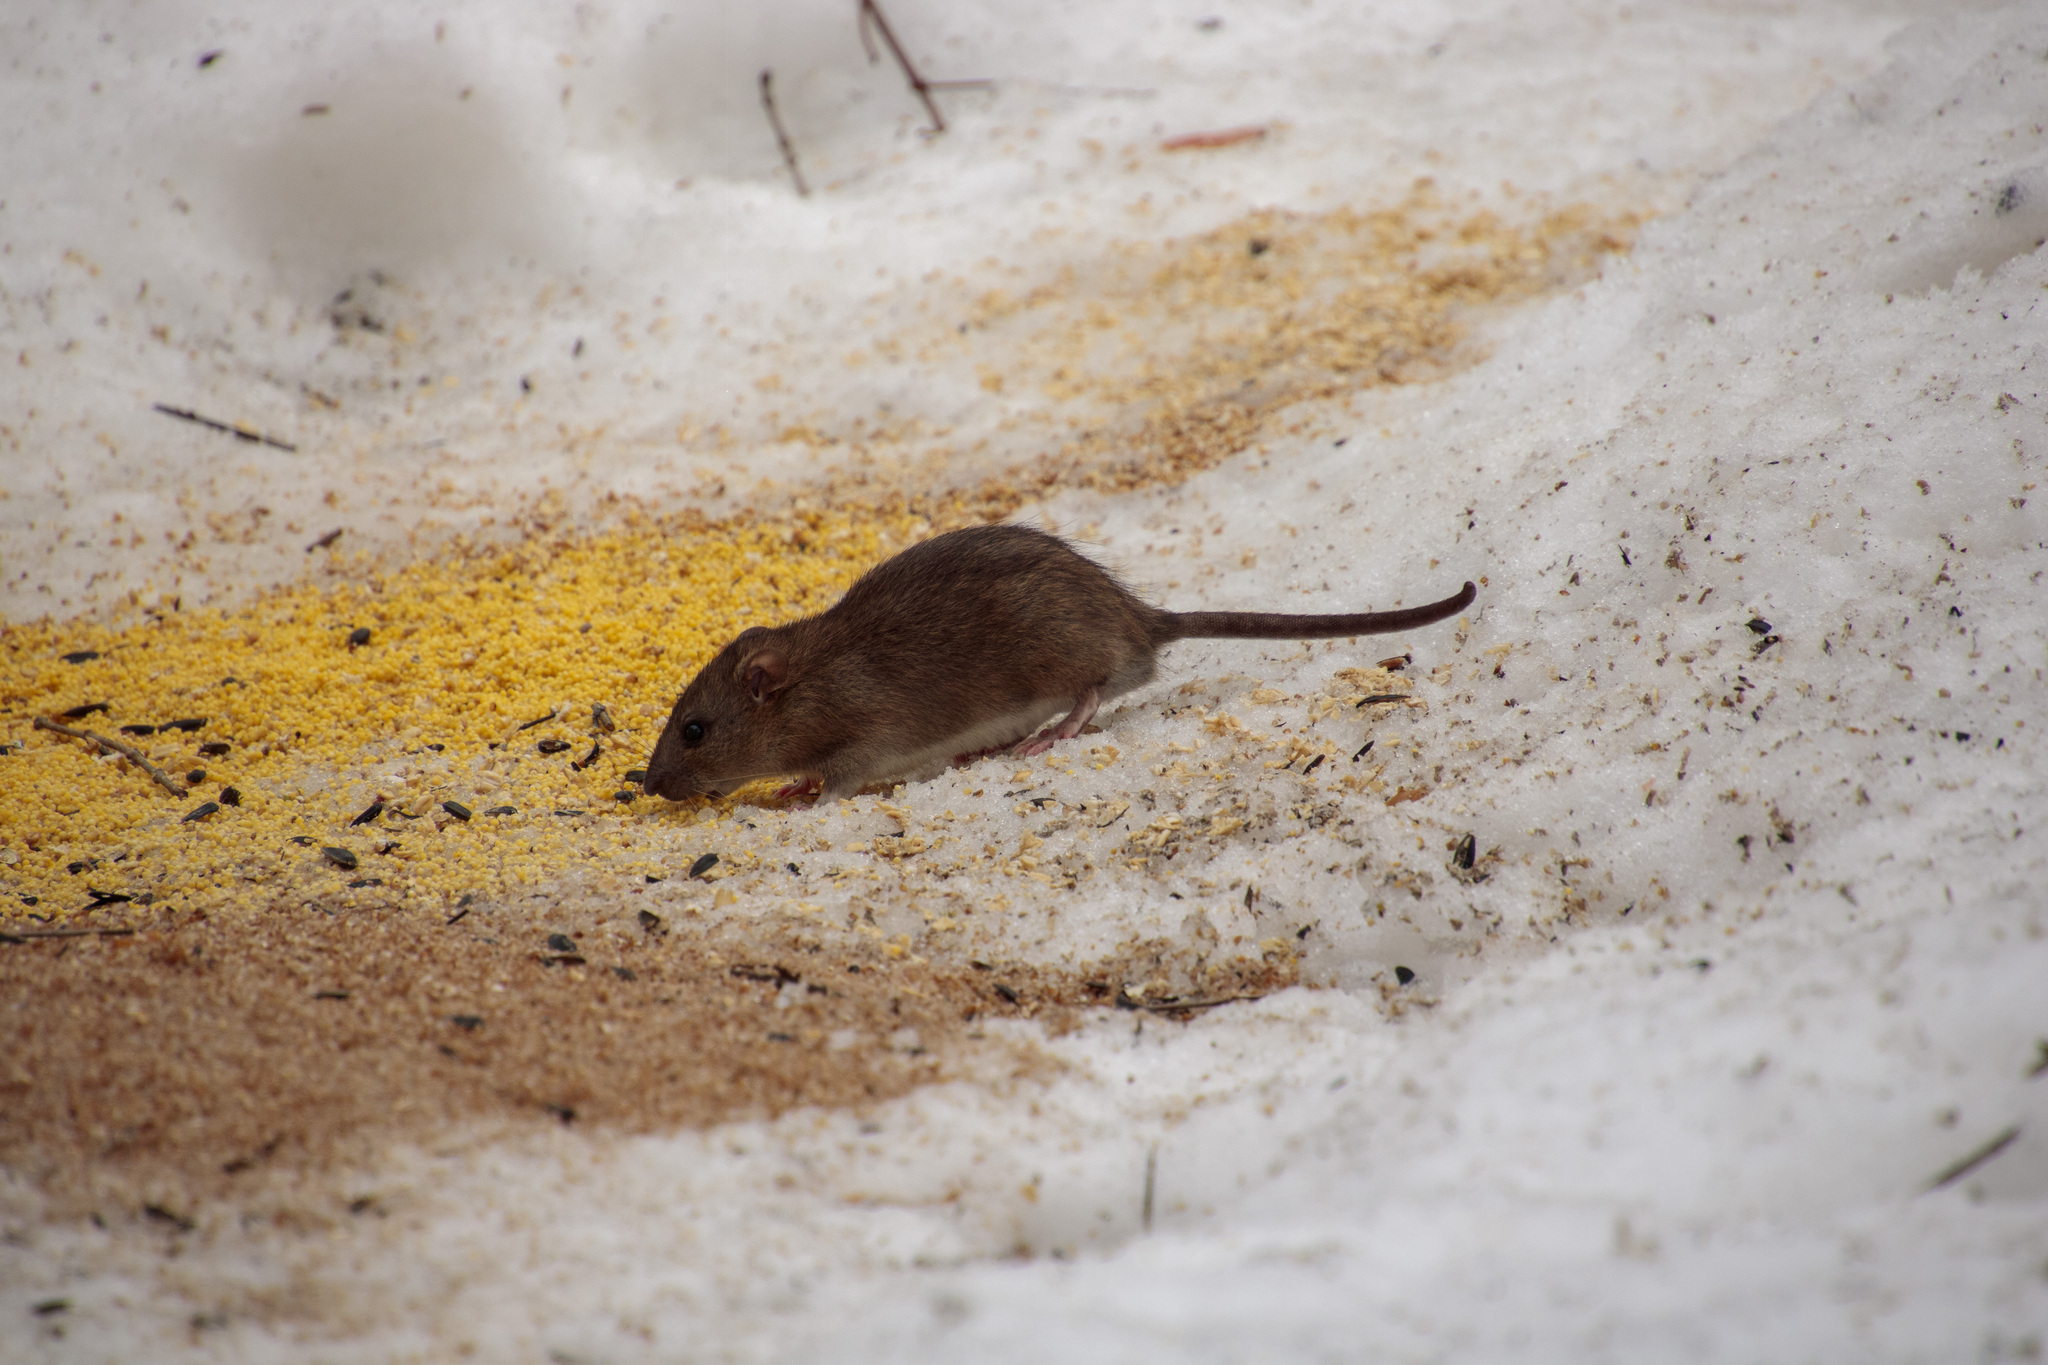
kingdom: Animalia
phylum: Chordata
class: Mammalia
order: Rodentia
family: Muridae
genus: Rattus
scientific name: Rattus norvegicus
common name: Brown rat
